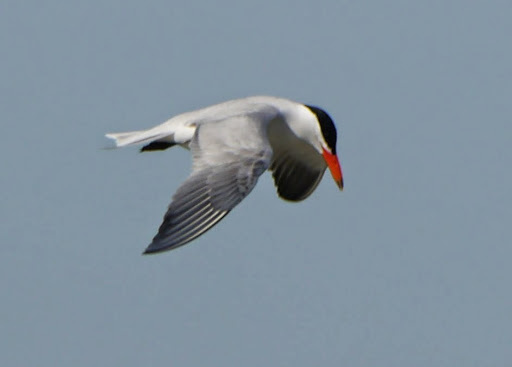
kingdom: Animalia
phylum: Chordata
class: Aves
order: Charadriiformes
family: Laridae
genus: Hydroprogne
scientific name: Hydroprogne caspia
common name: Caspian tern
